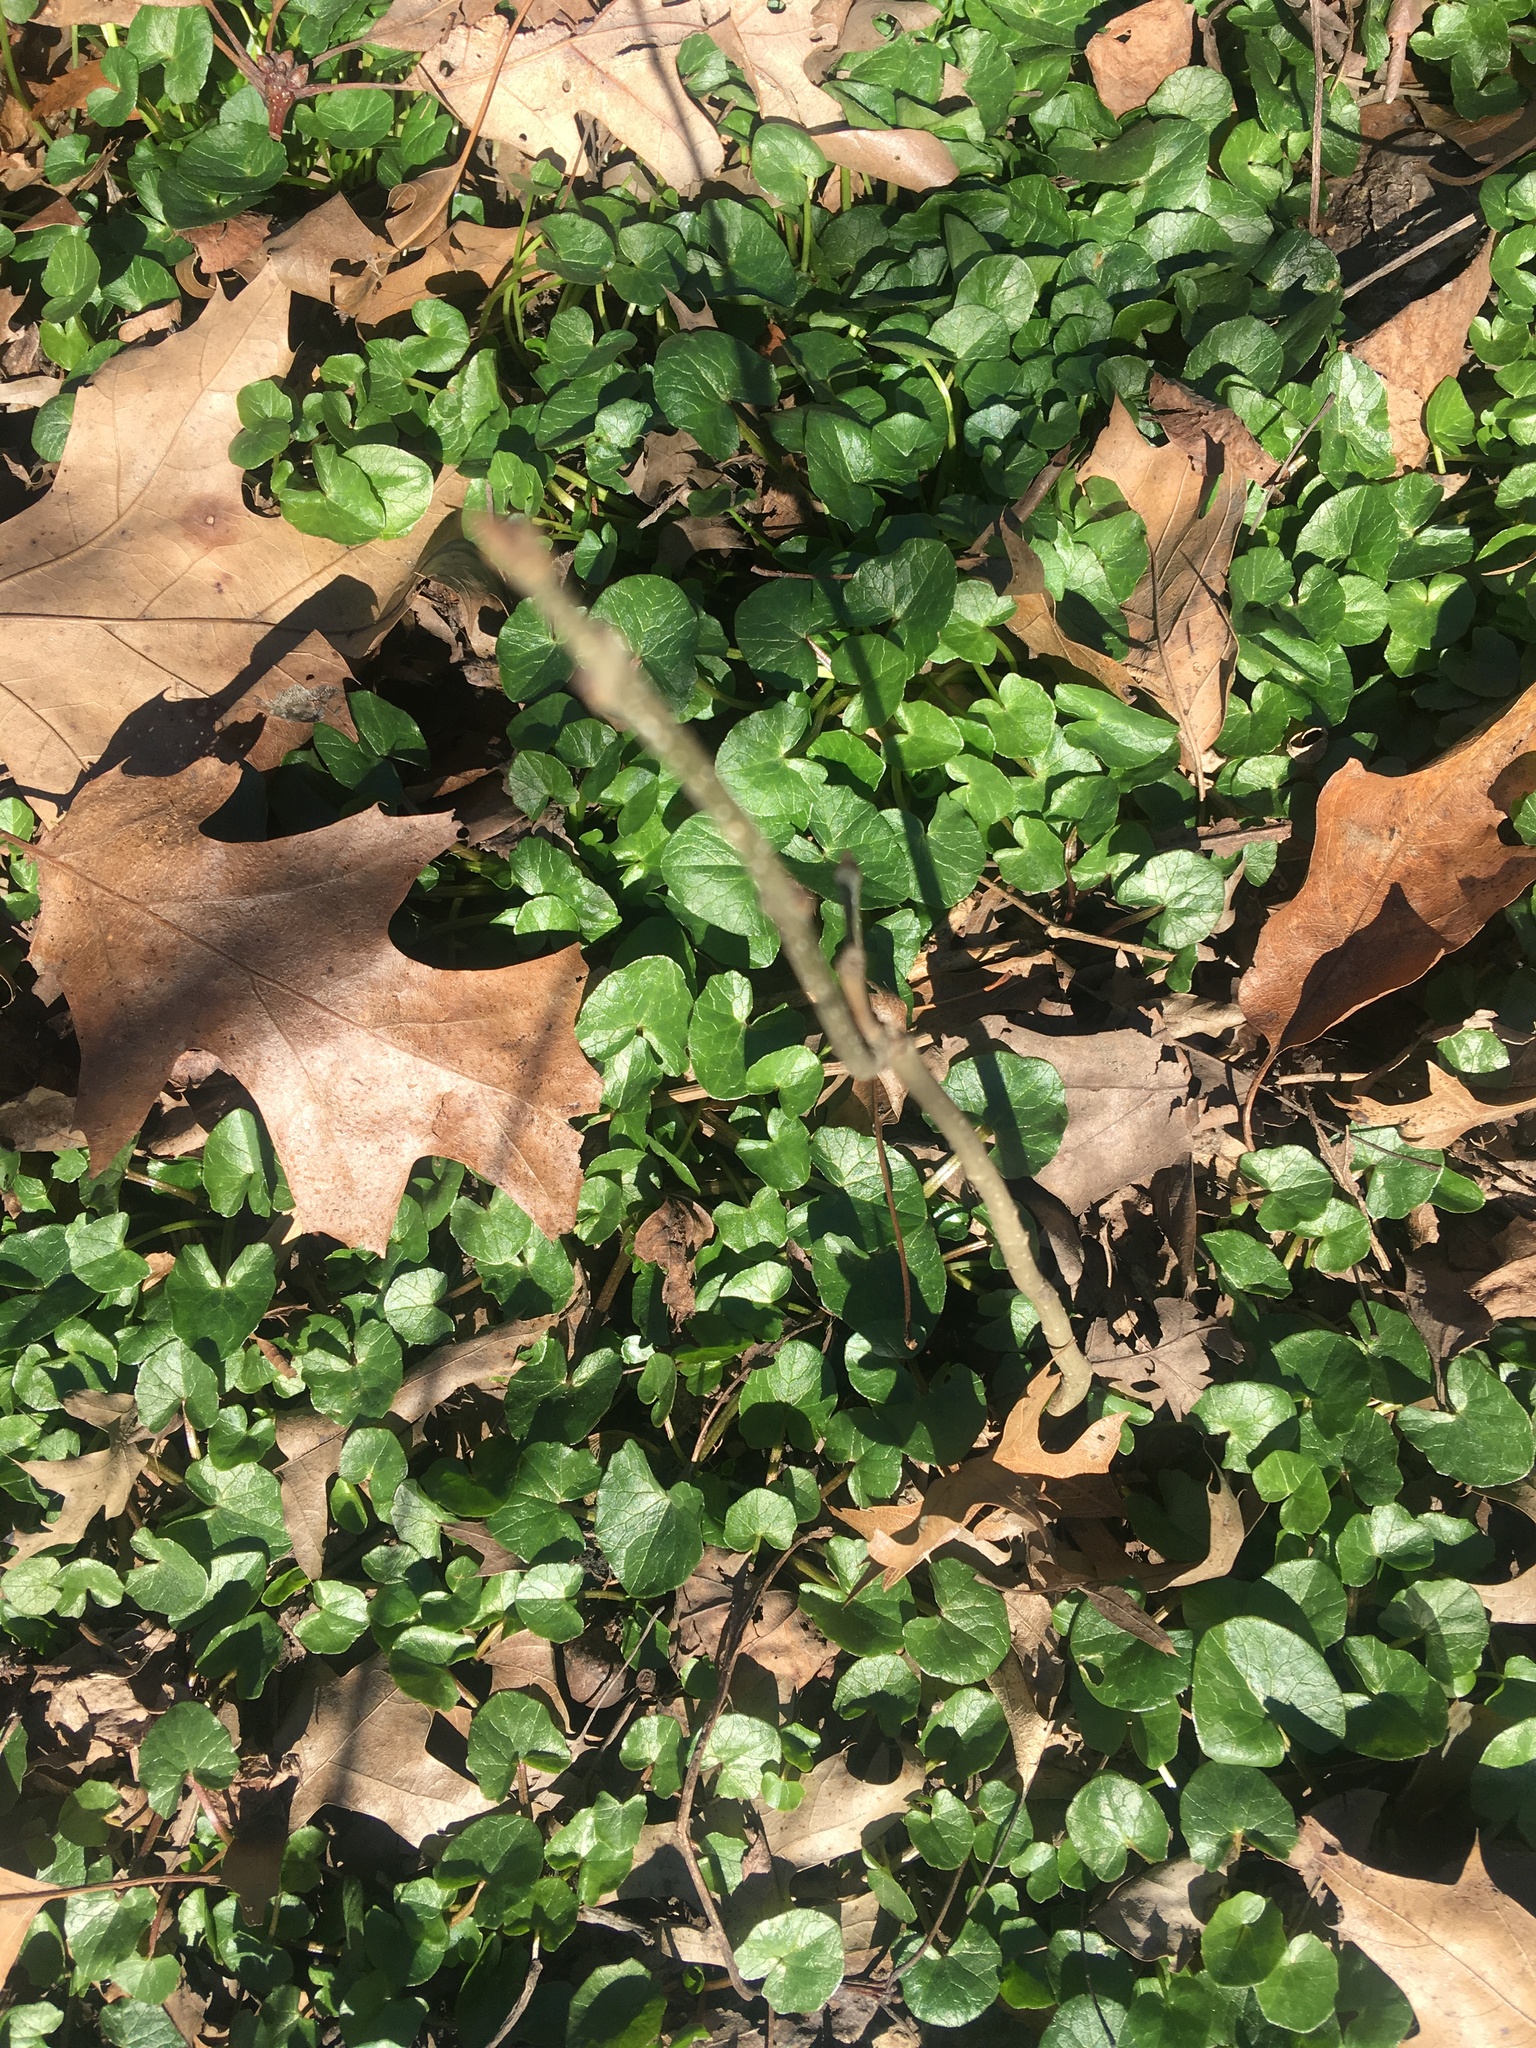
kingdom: Plantae
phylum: Tracheophyta
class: Magnoliopsida
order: Ranunculales
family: Ranunculaceae
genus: Ficaria
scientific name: Ficaria verna
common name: Lesser celandine
